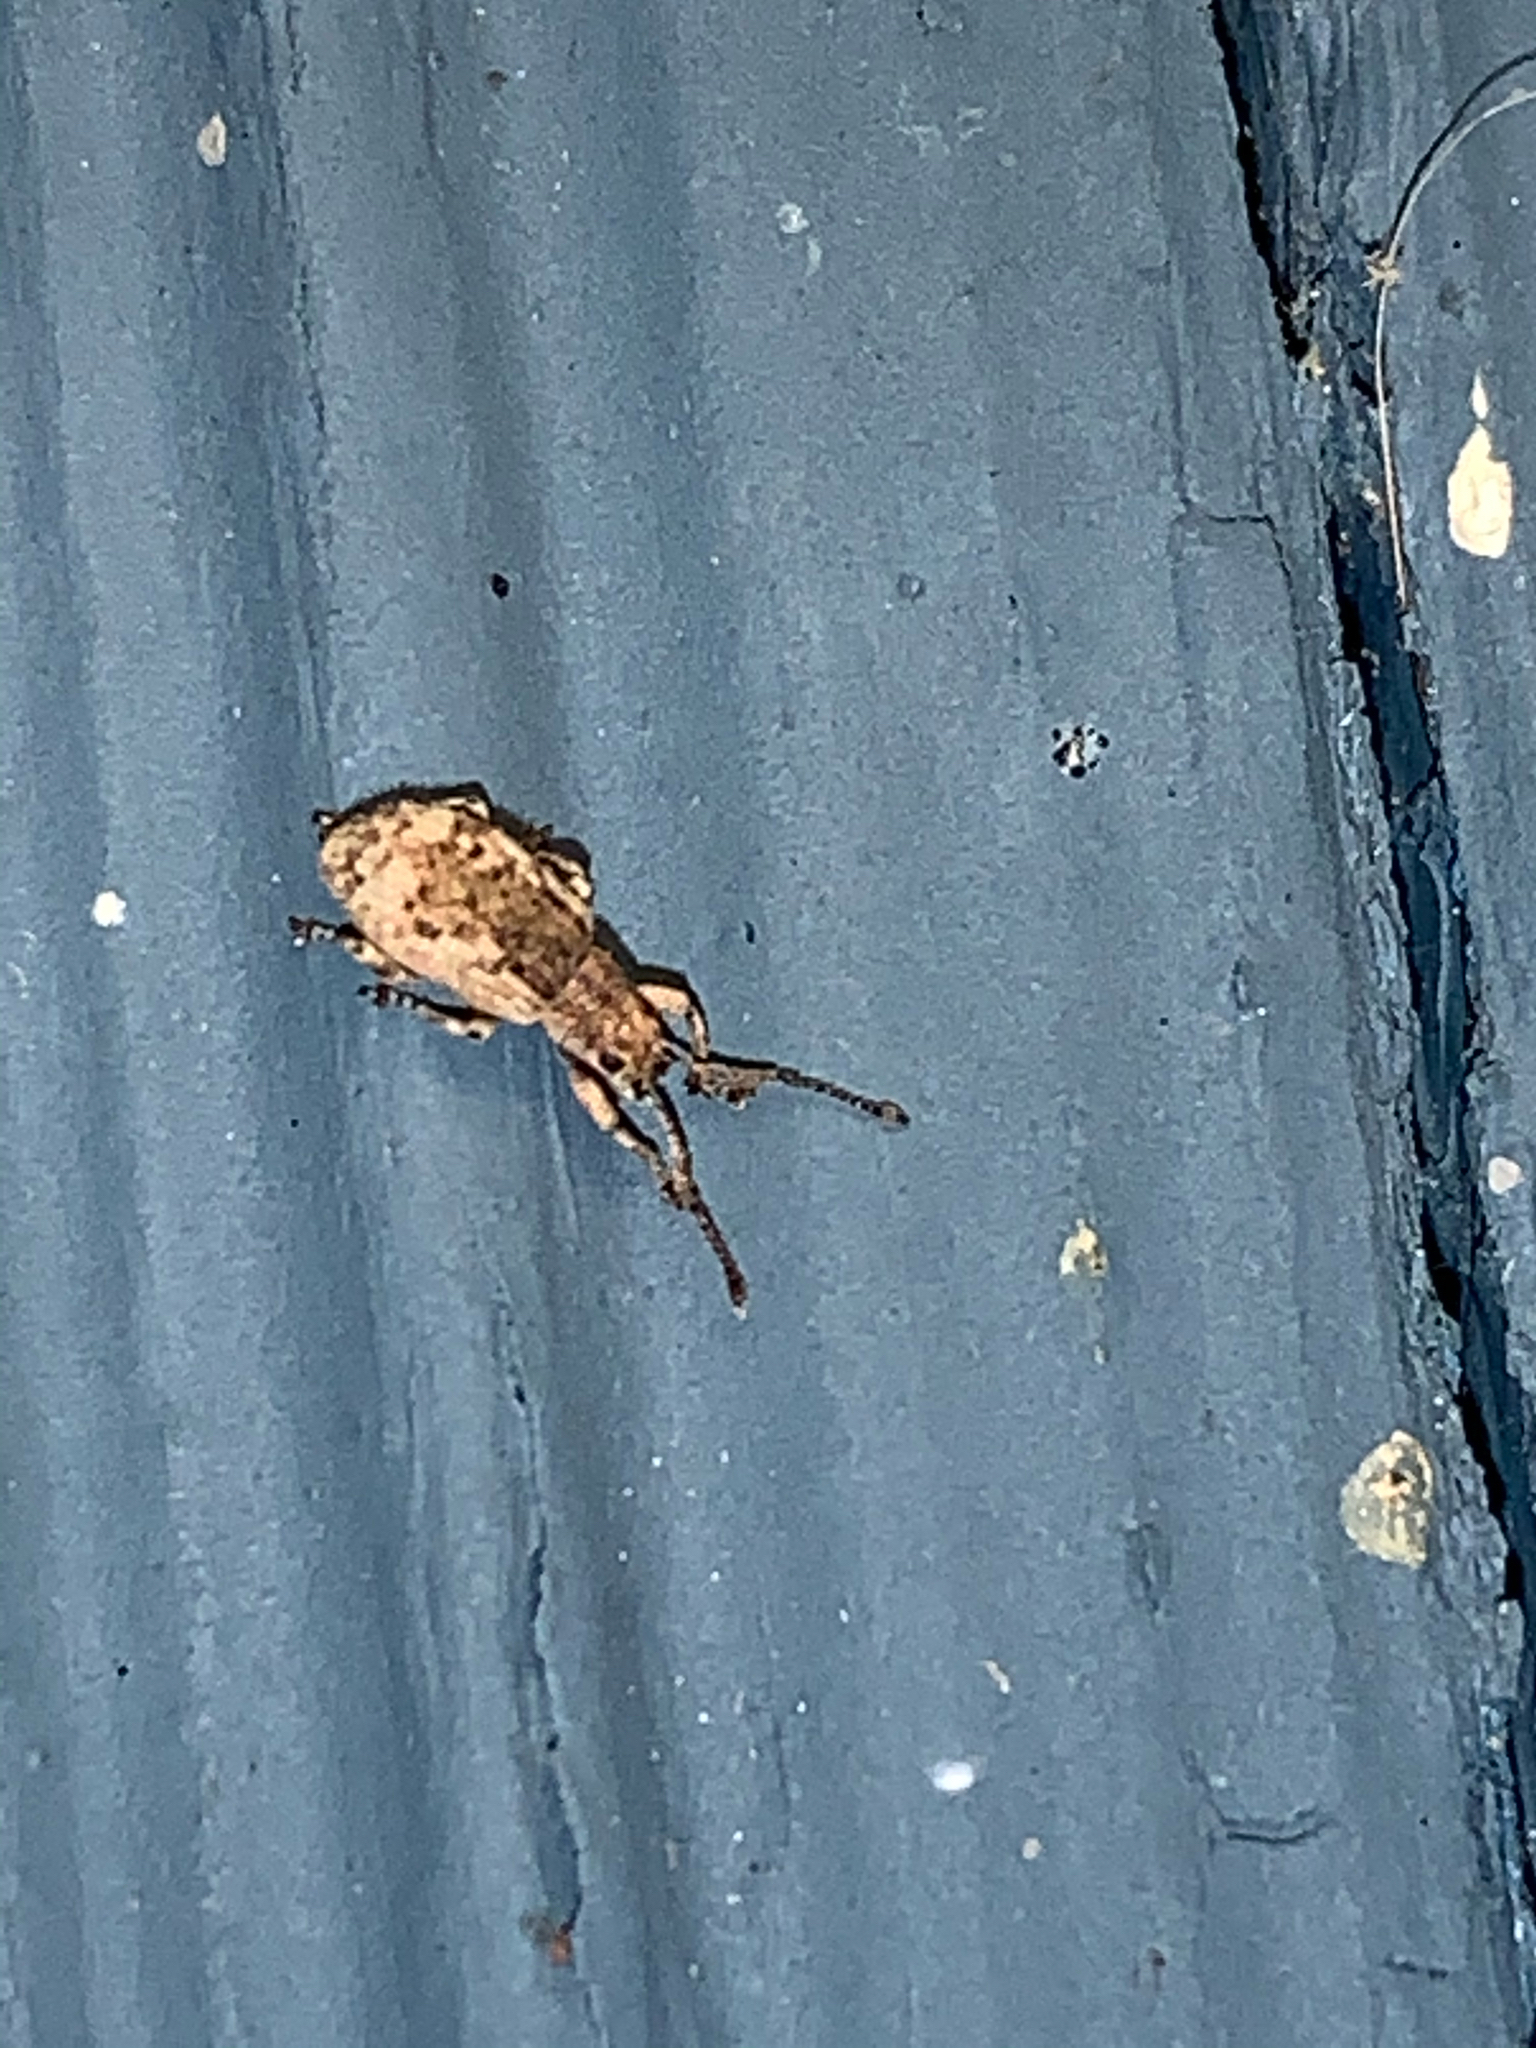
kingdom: Animalia
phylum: Arthropoda
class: Insecta
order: Coleoptera
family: Curculionidae
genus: Pseudoedophrys
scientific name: Pseudoedophrys hilleri
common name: Weevil
